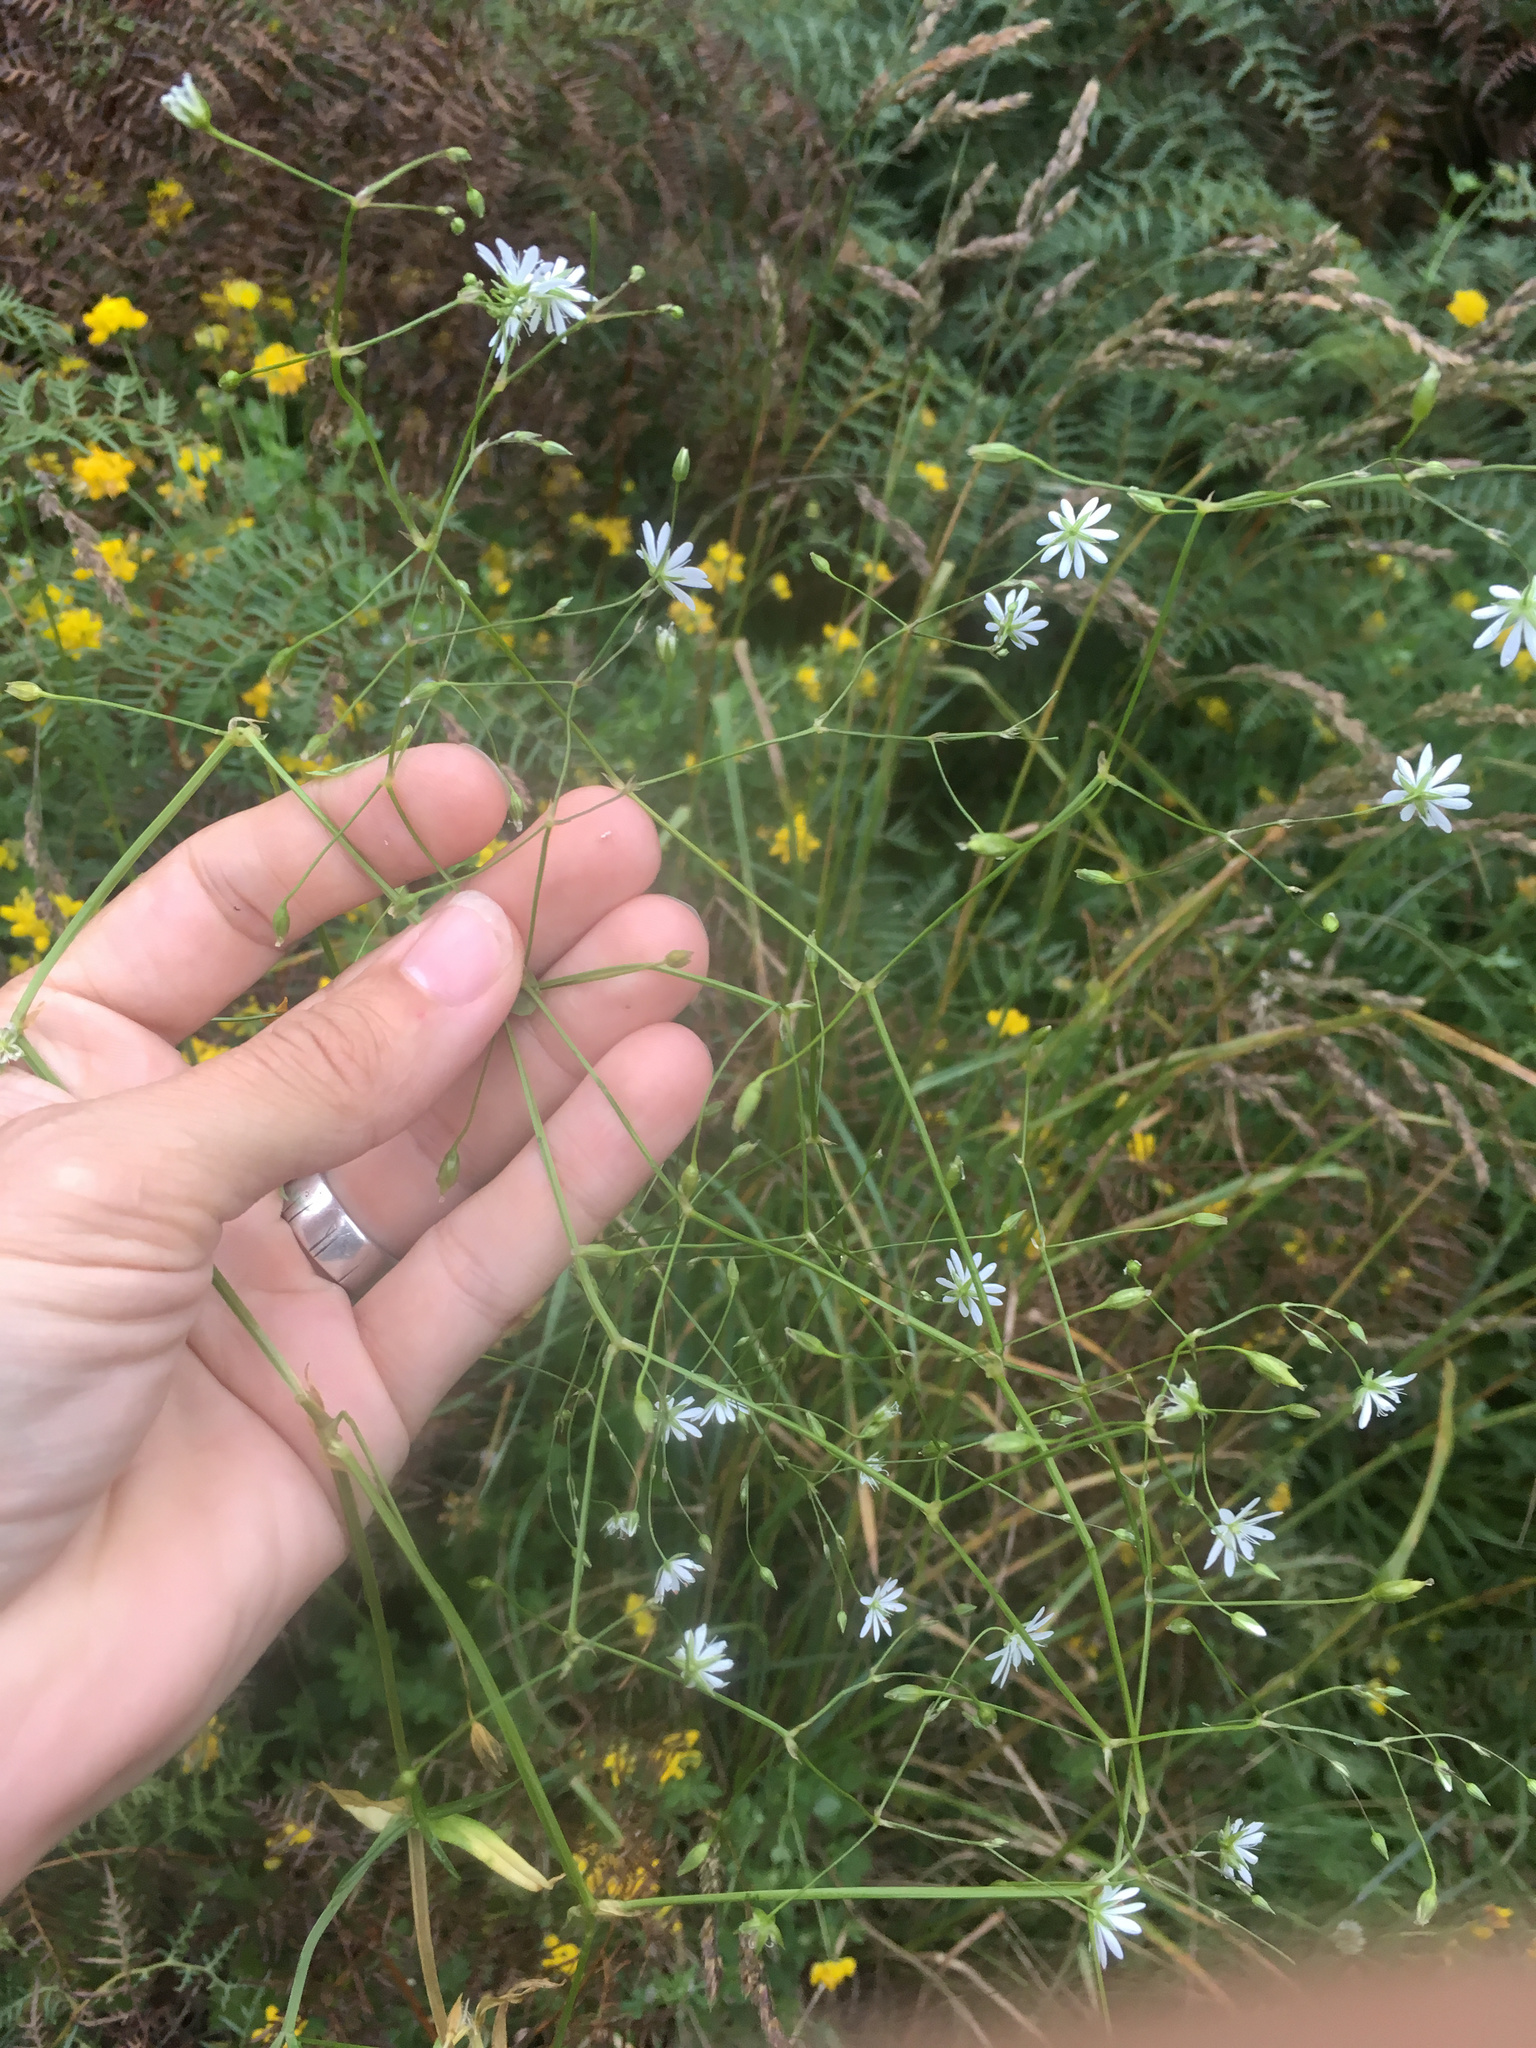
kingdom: Plantae
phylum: Tracheophyta
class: Magnoliopsida
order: Caryophyllales
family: Caryophyllaceae
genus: Stellaria
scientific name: Stellaria graminea
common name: Grass-like starwort
